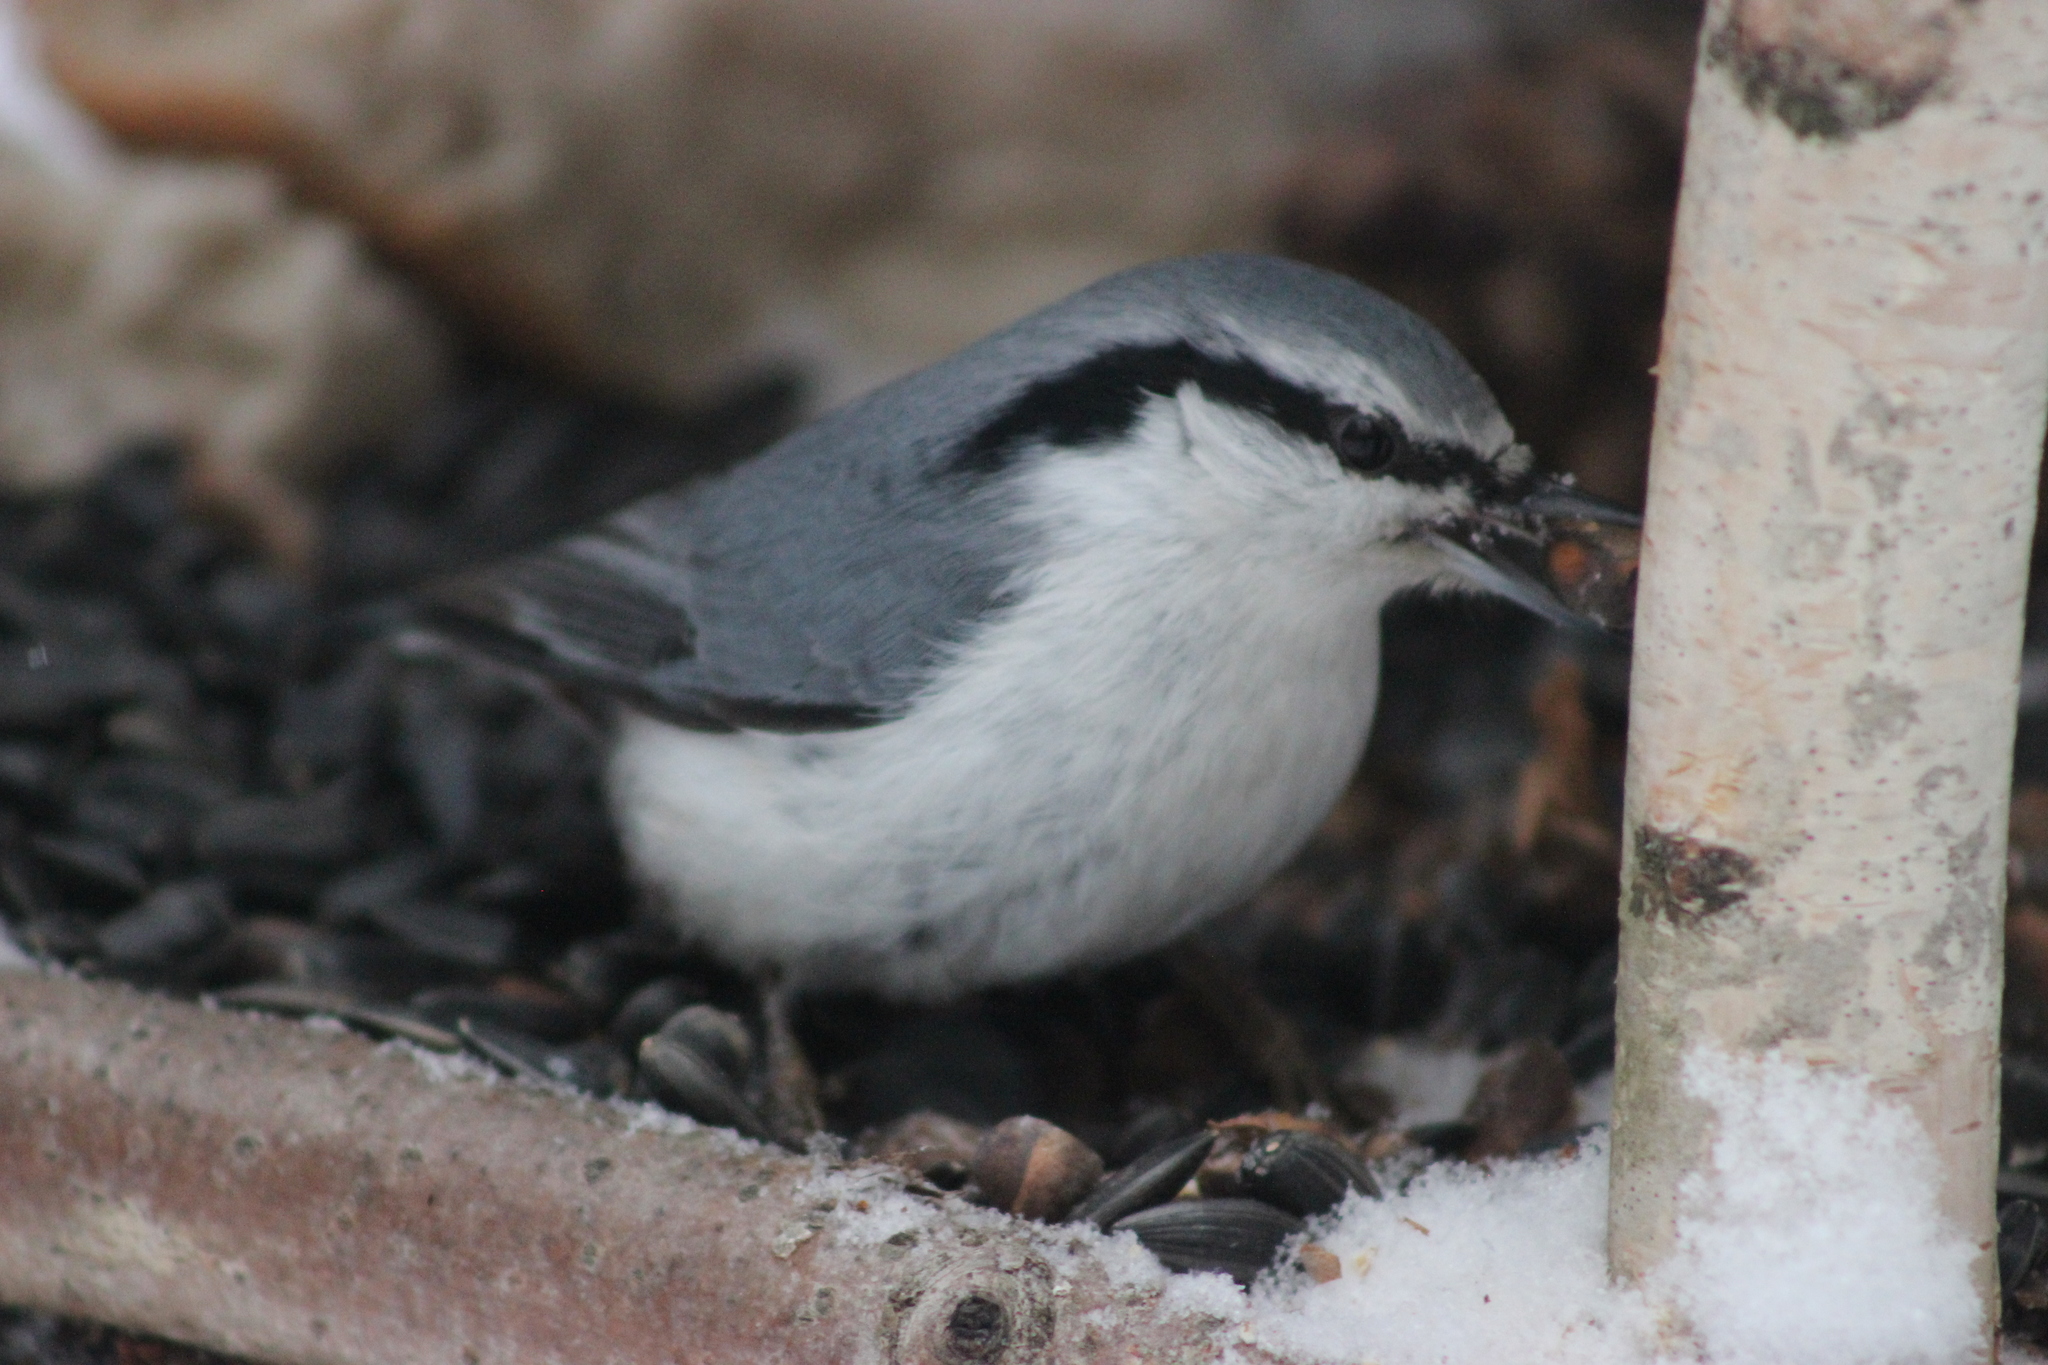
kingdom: Animalia
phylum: Chordata
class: Aves
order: Passeriformes
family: Sittidae
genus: Sitta
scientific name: Sitta europaea
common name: Eurasian nuthatch
